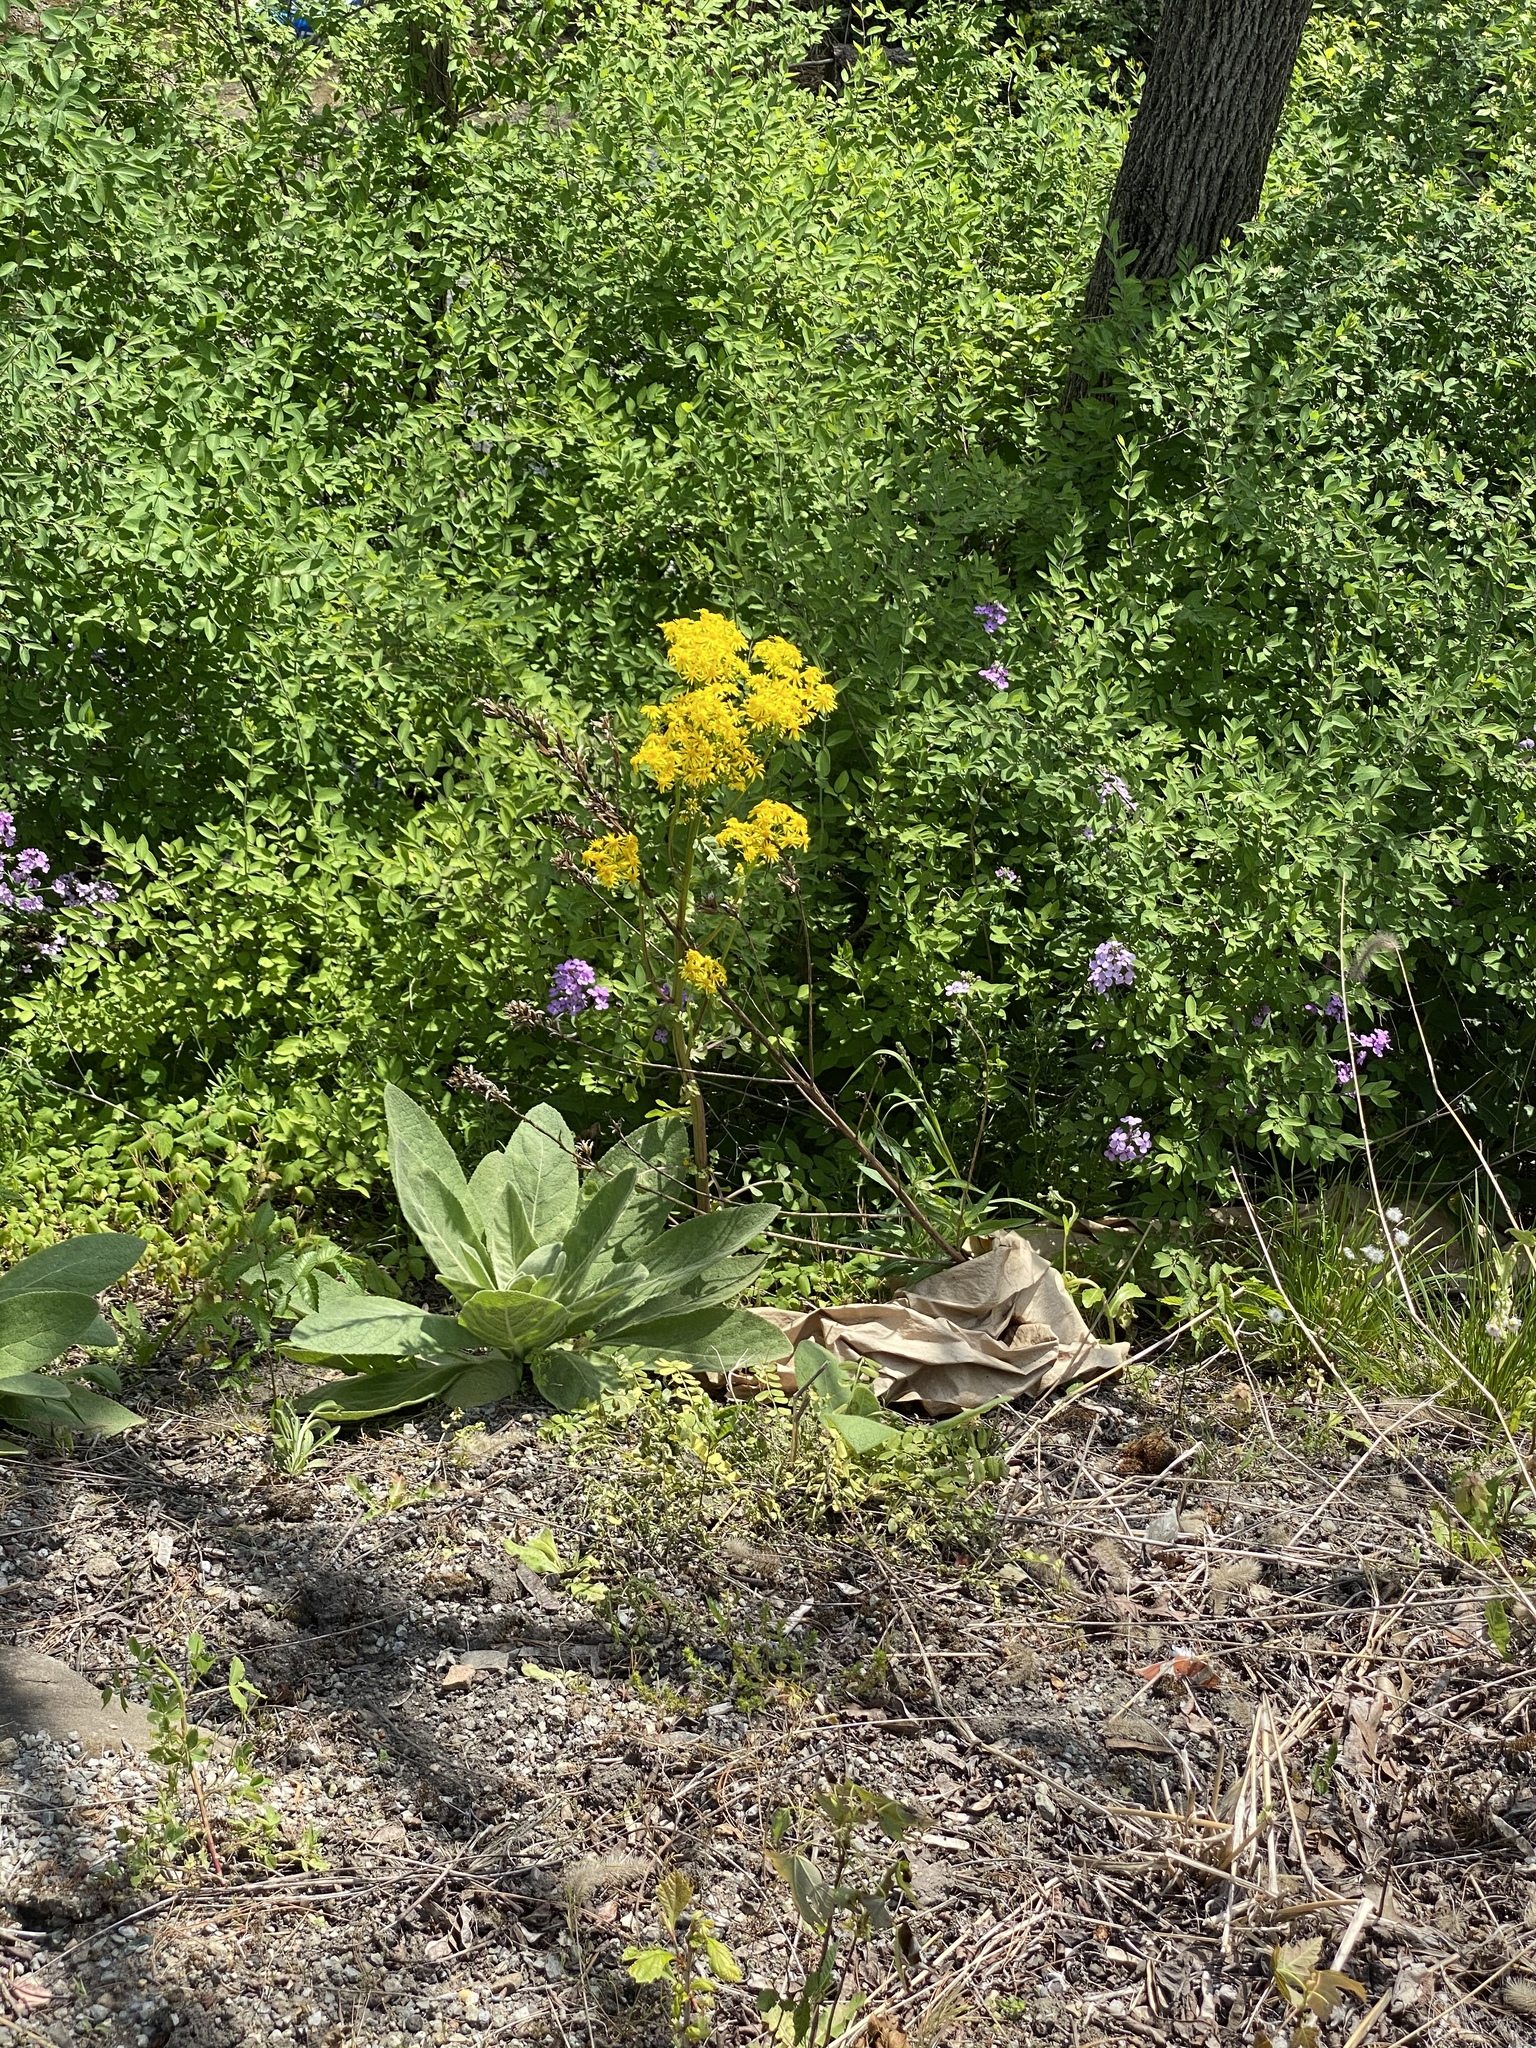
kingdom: Plantae
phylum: Tracheophyta
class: Magnoliopsida
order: Asterales
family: Asteraceae
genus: Packera
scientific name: Packera glabella
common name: Butterweed
